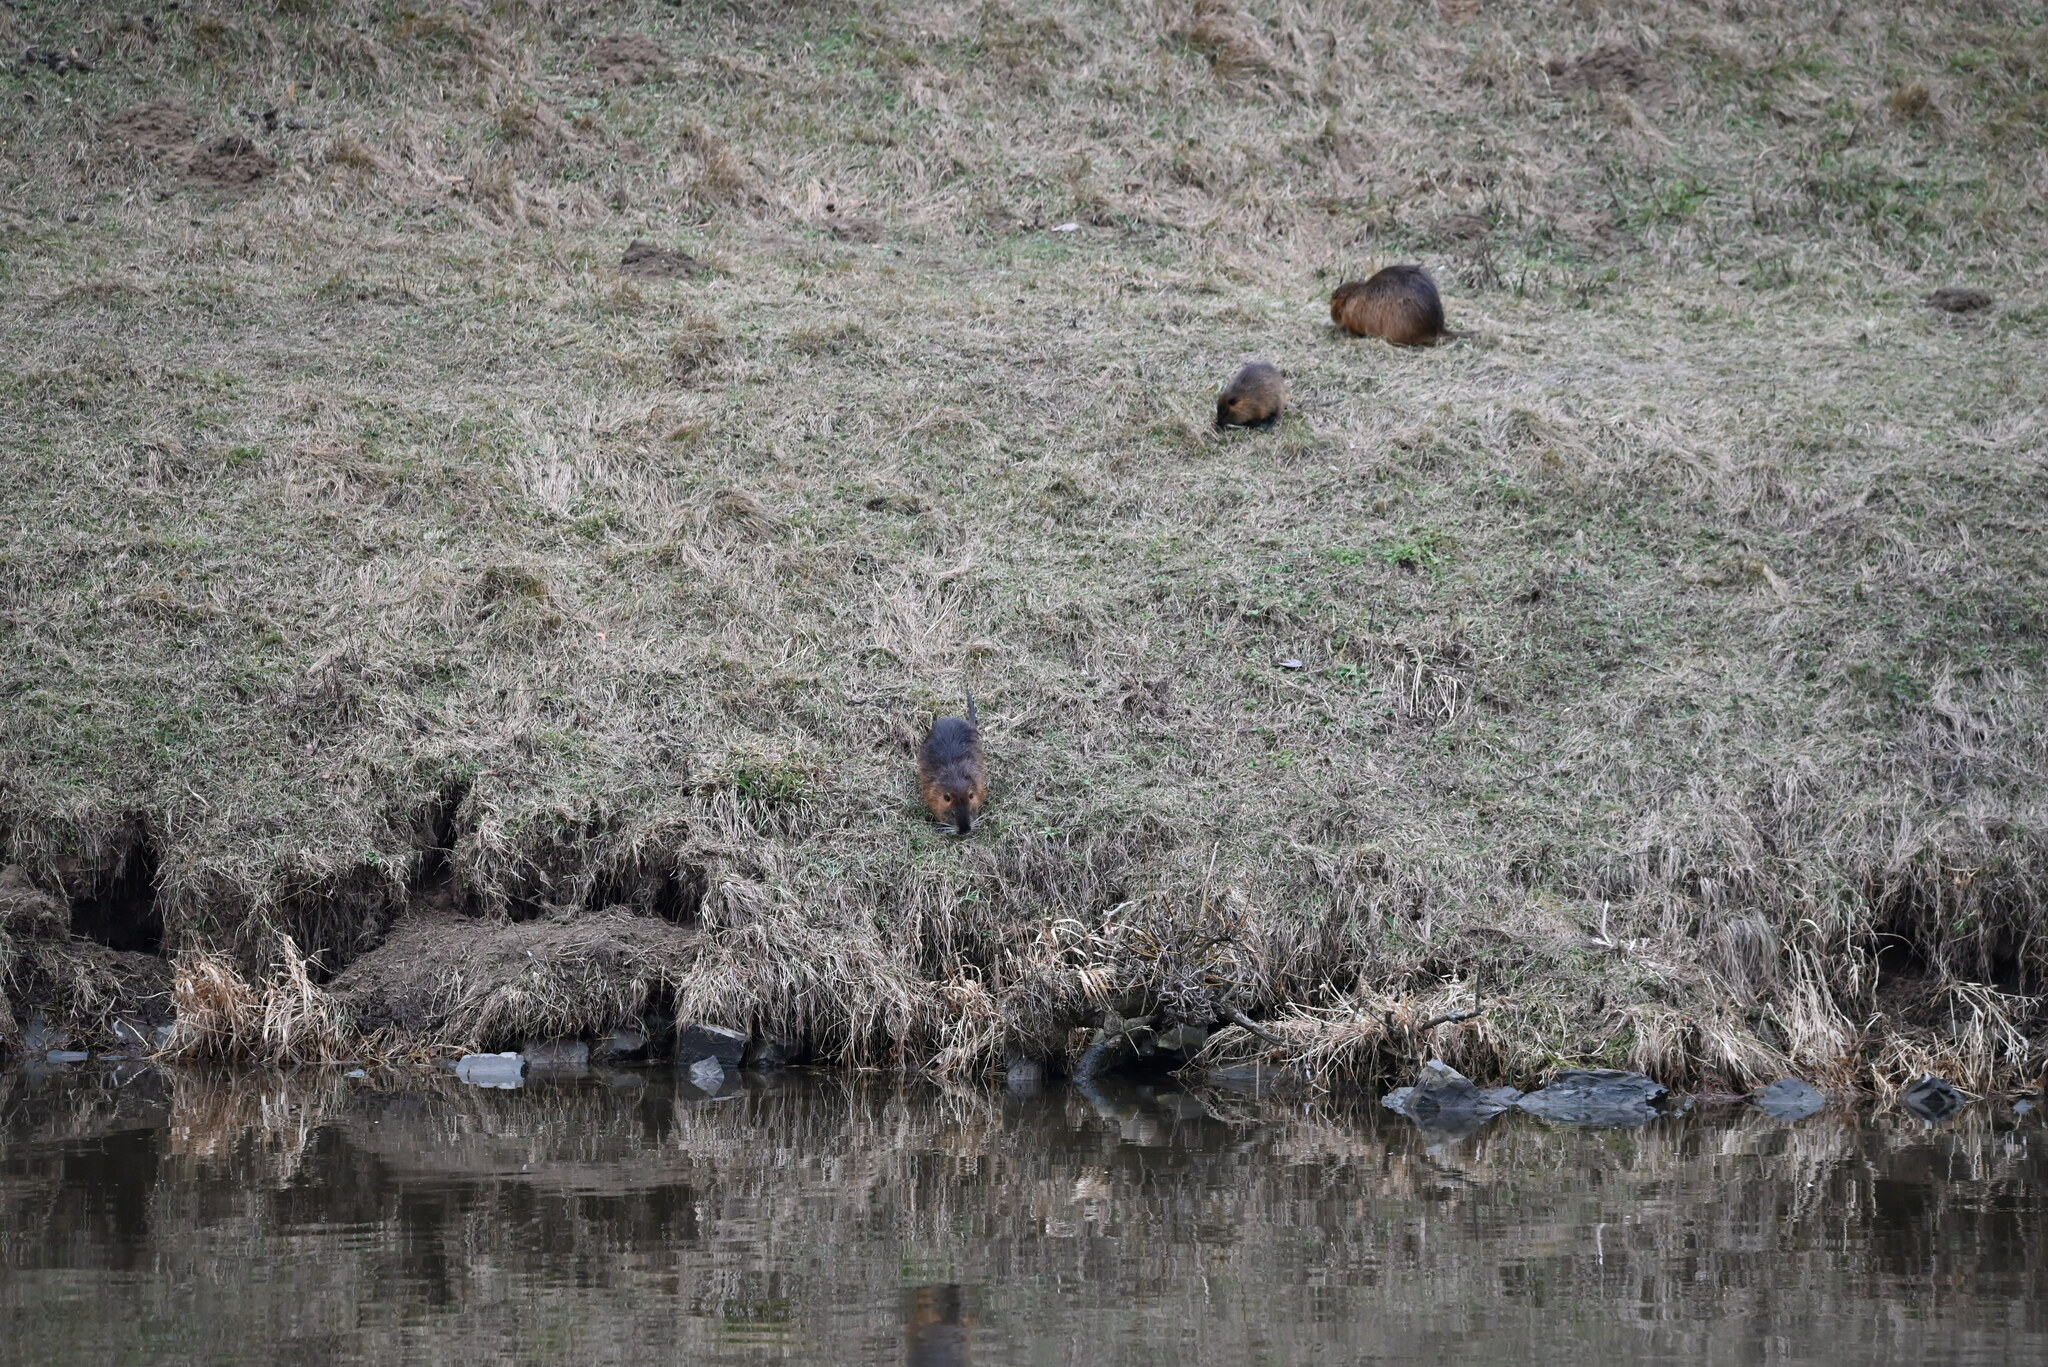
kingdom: Animalia
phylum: Chordata
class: Mammalia
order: Rodentia
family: Myocastoridae
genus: Myocastor
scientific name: Myocastor coypus
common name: Coypu
